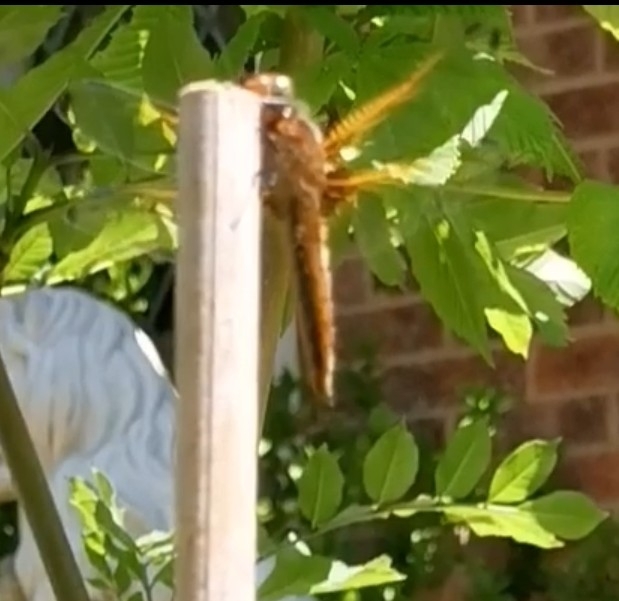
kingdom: Animalia
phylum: Arthropoda
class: Insecta
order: Odonata
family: Libellulidae
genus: Libellula
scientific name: Libellula fulva
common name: Blue chaser
